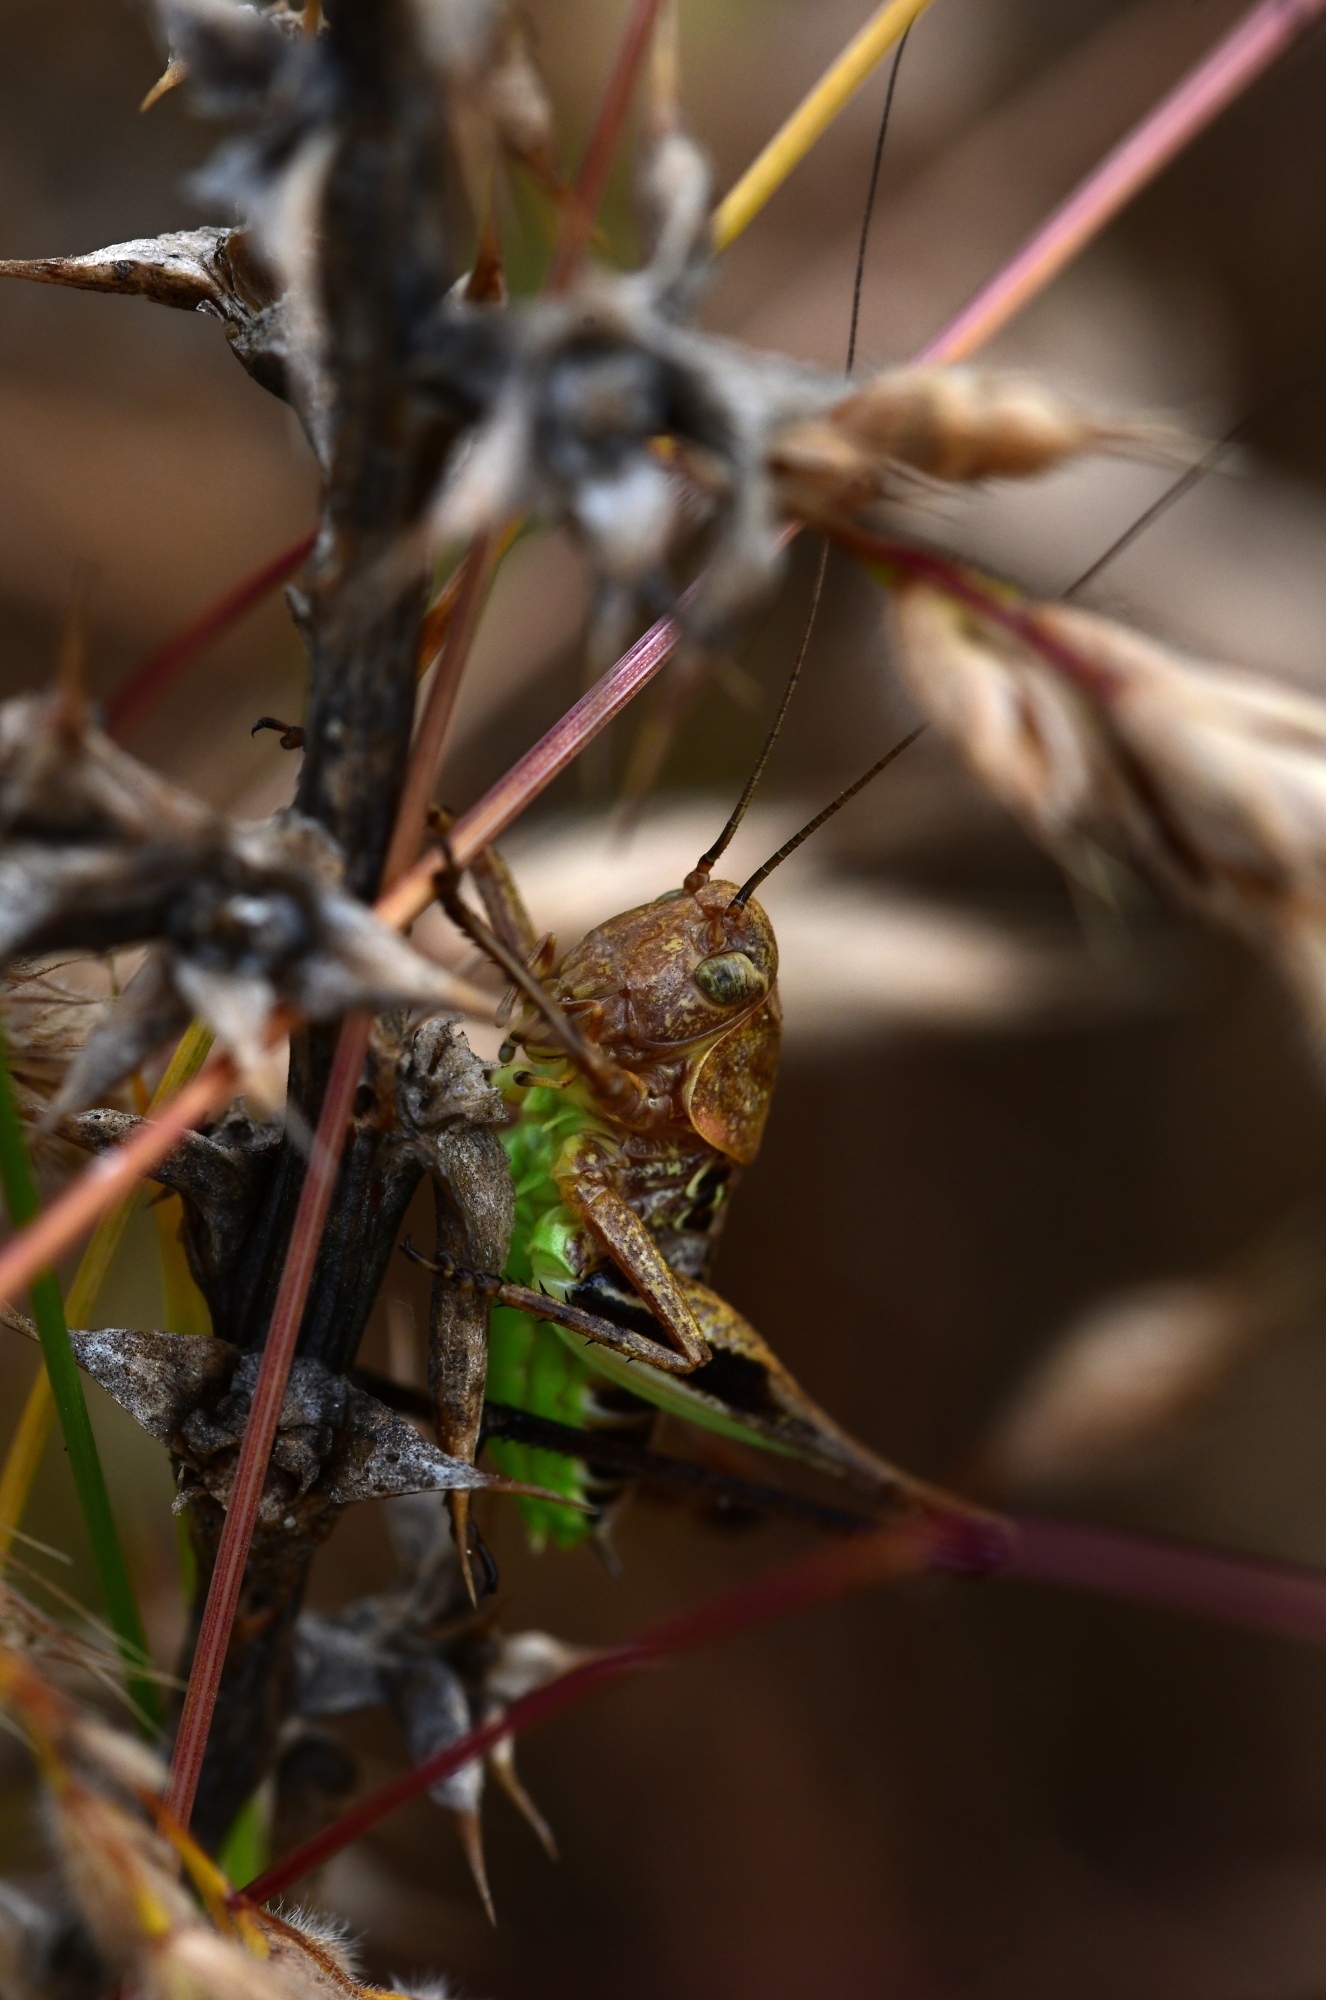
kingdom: Animalia
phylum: Arthropoda
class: Insecta
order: Orthoptera
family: Tettigoniidae
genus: Decticus
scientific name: Decticus albifrons
